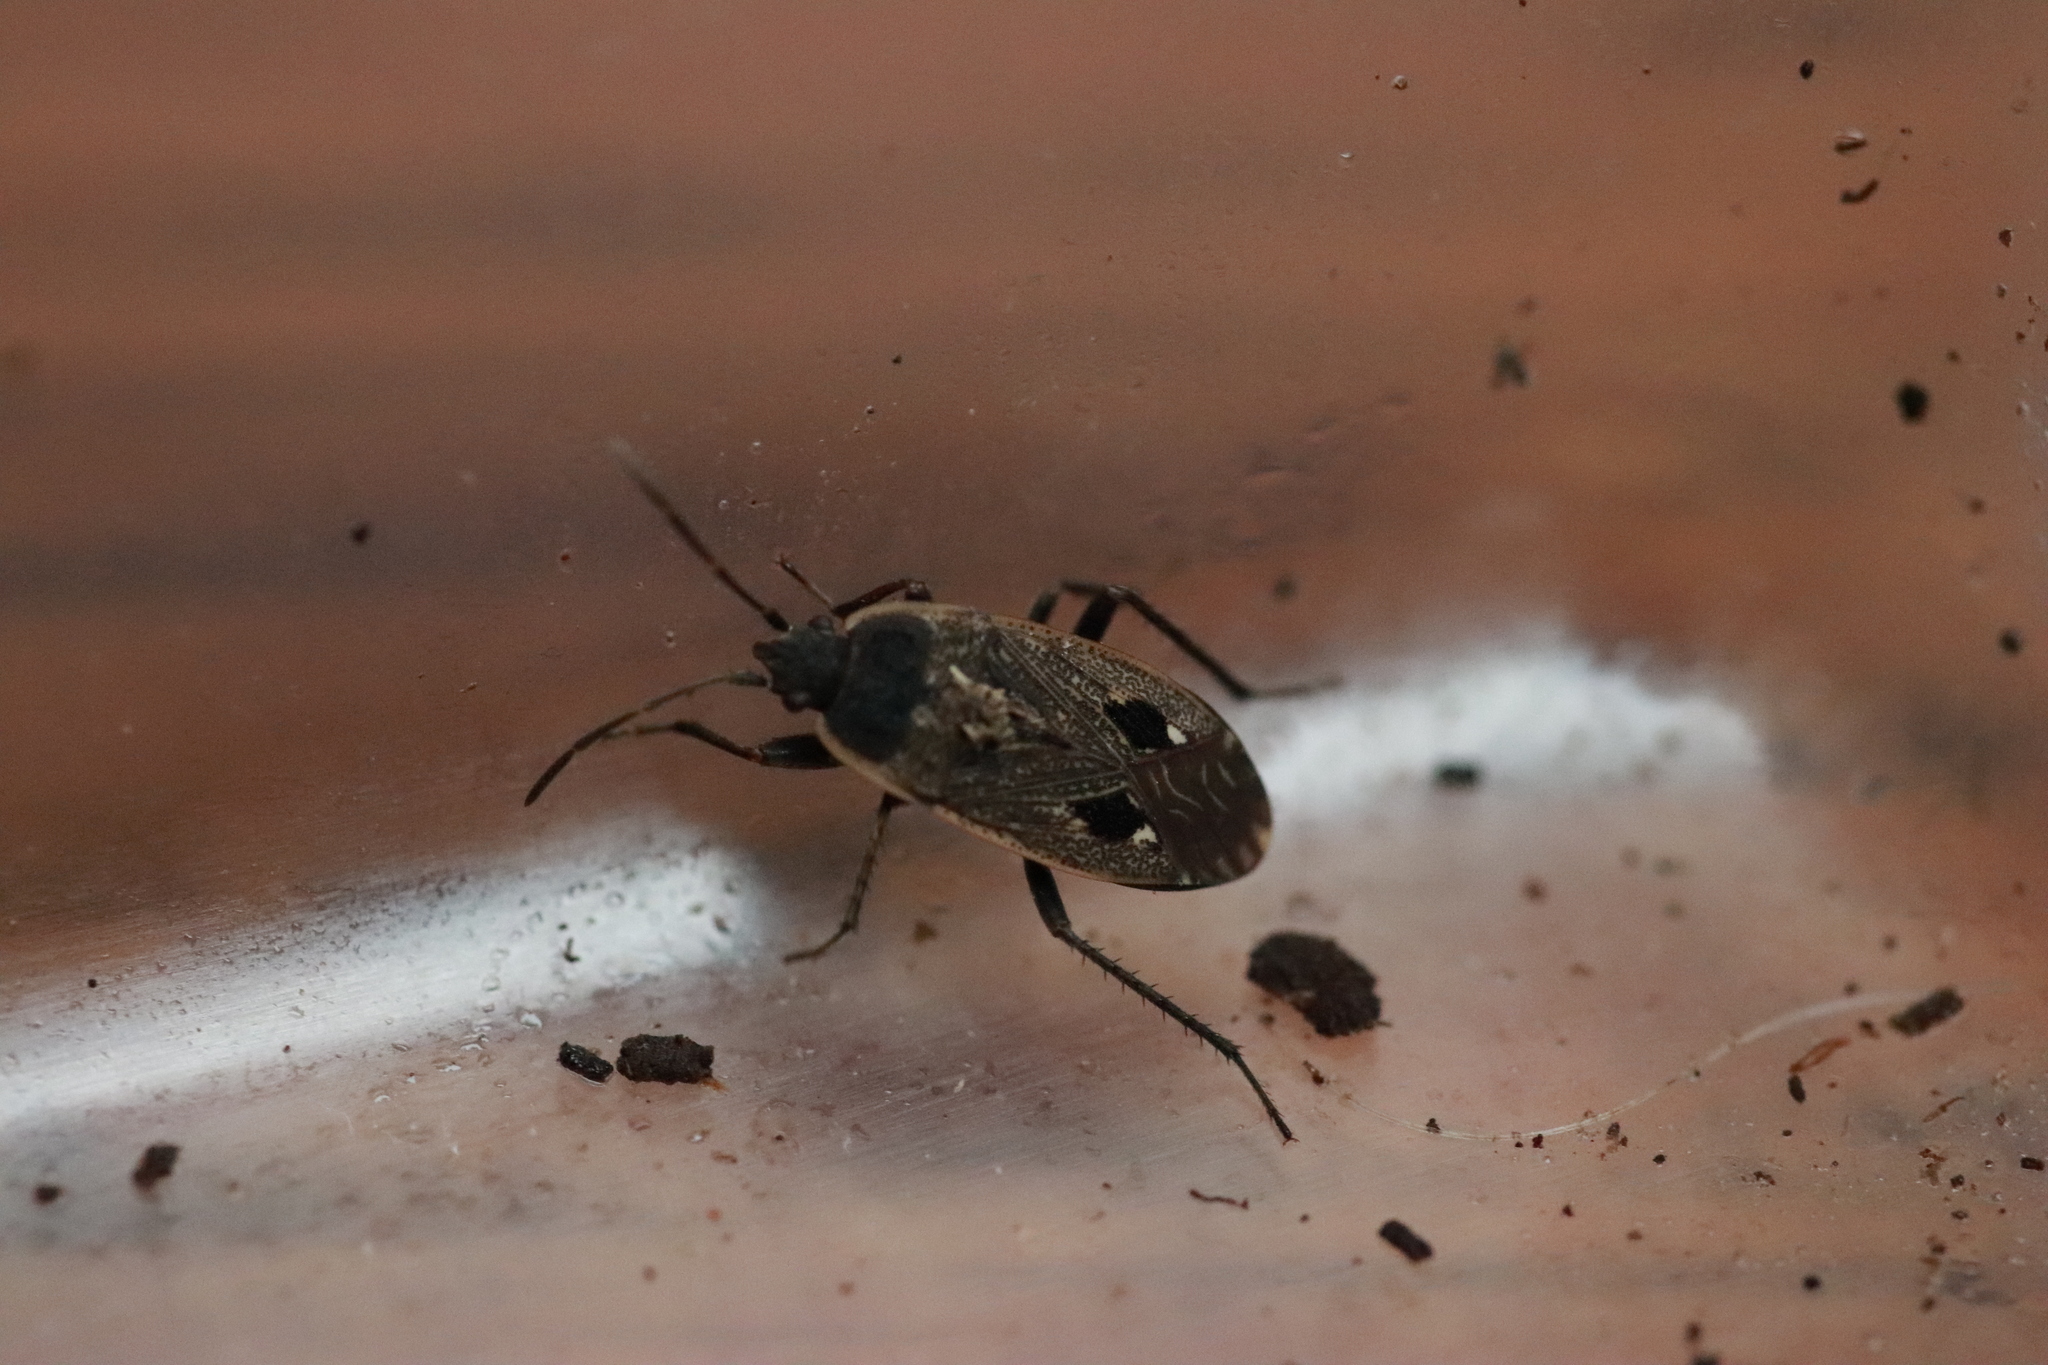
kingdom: Animalia
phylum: Arthropoda
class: Insecta
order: Hemiptera
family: Rhyparochromidae
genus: Graptopeltus
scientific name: Graptopeltus lynceus
